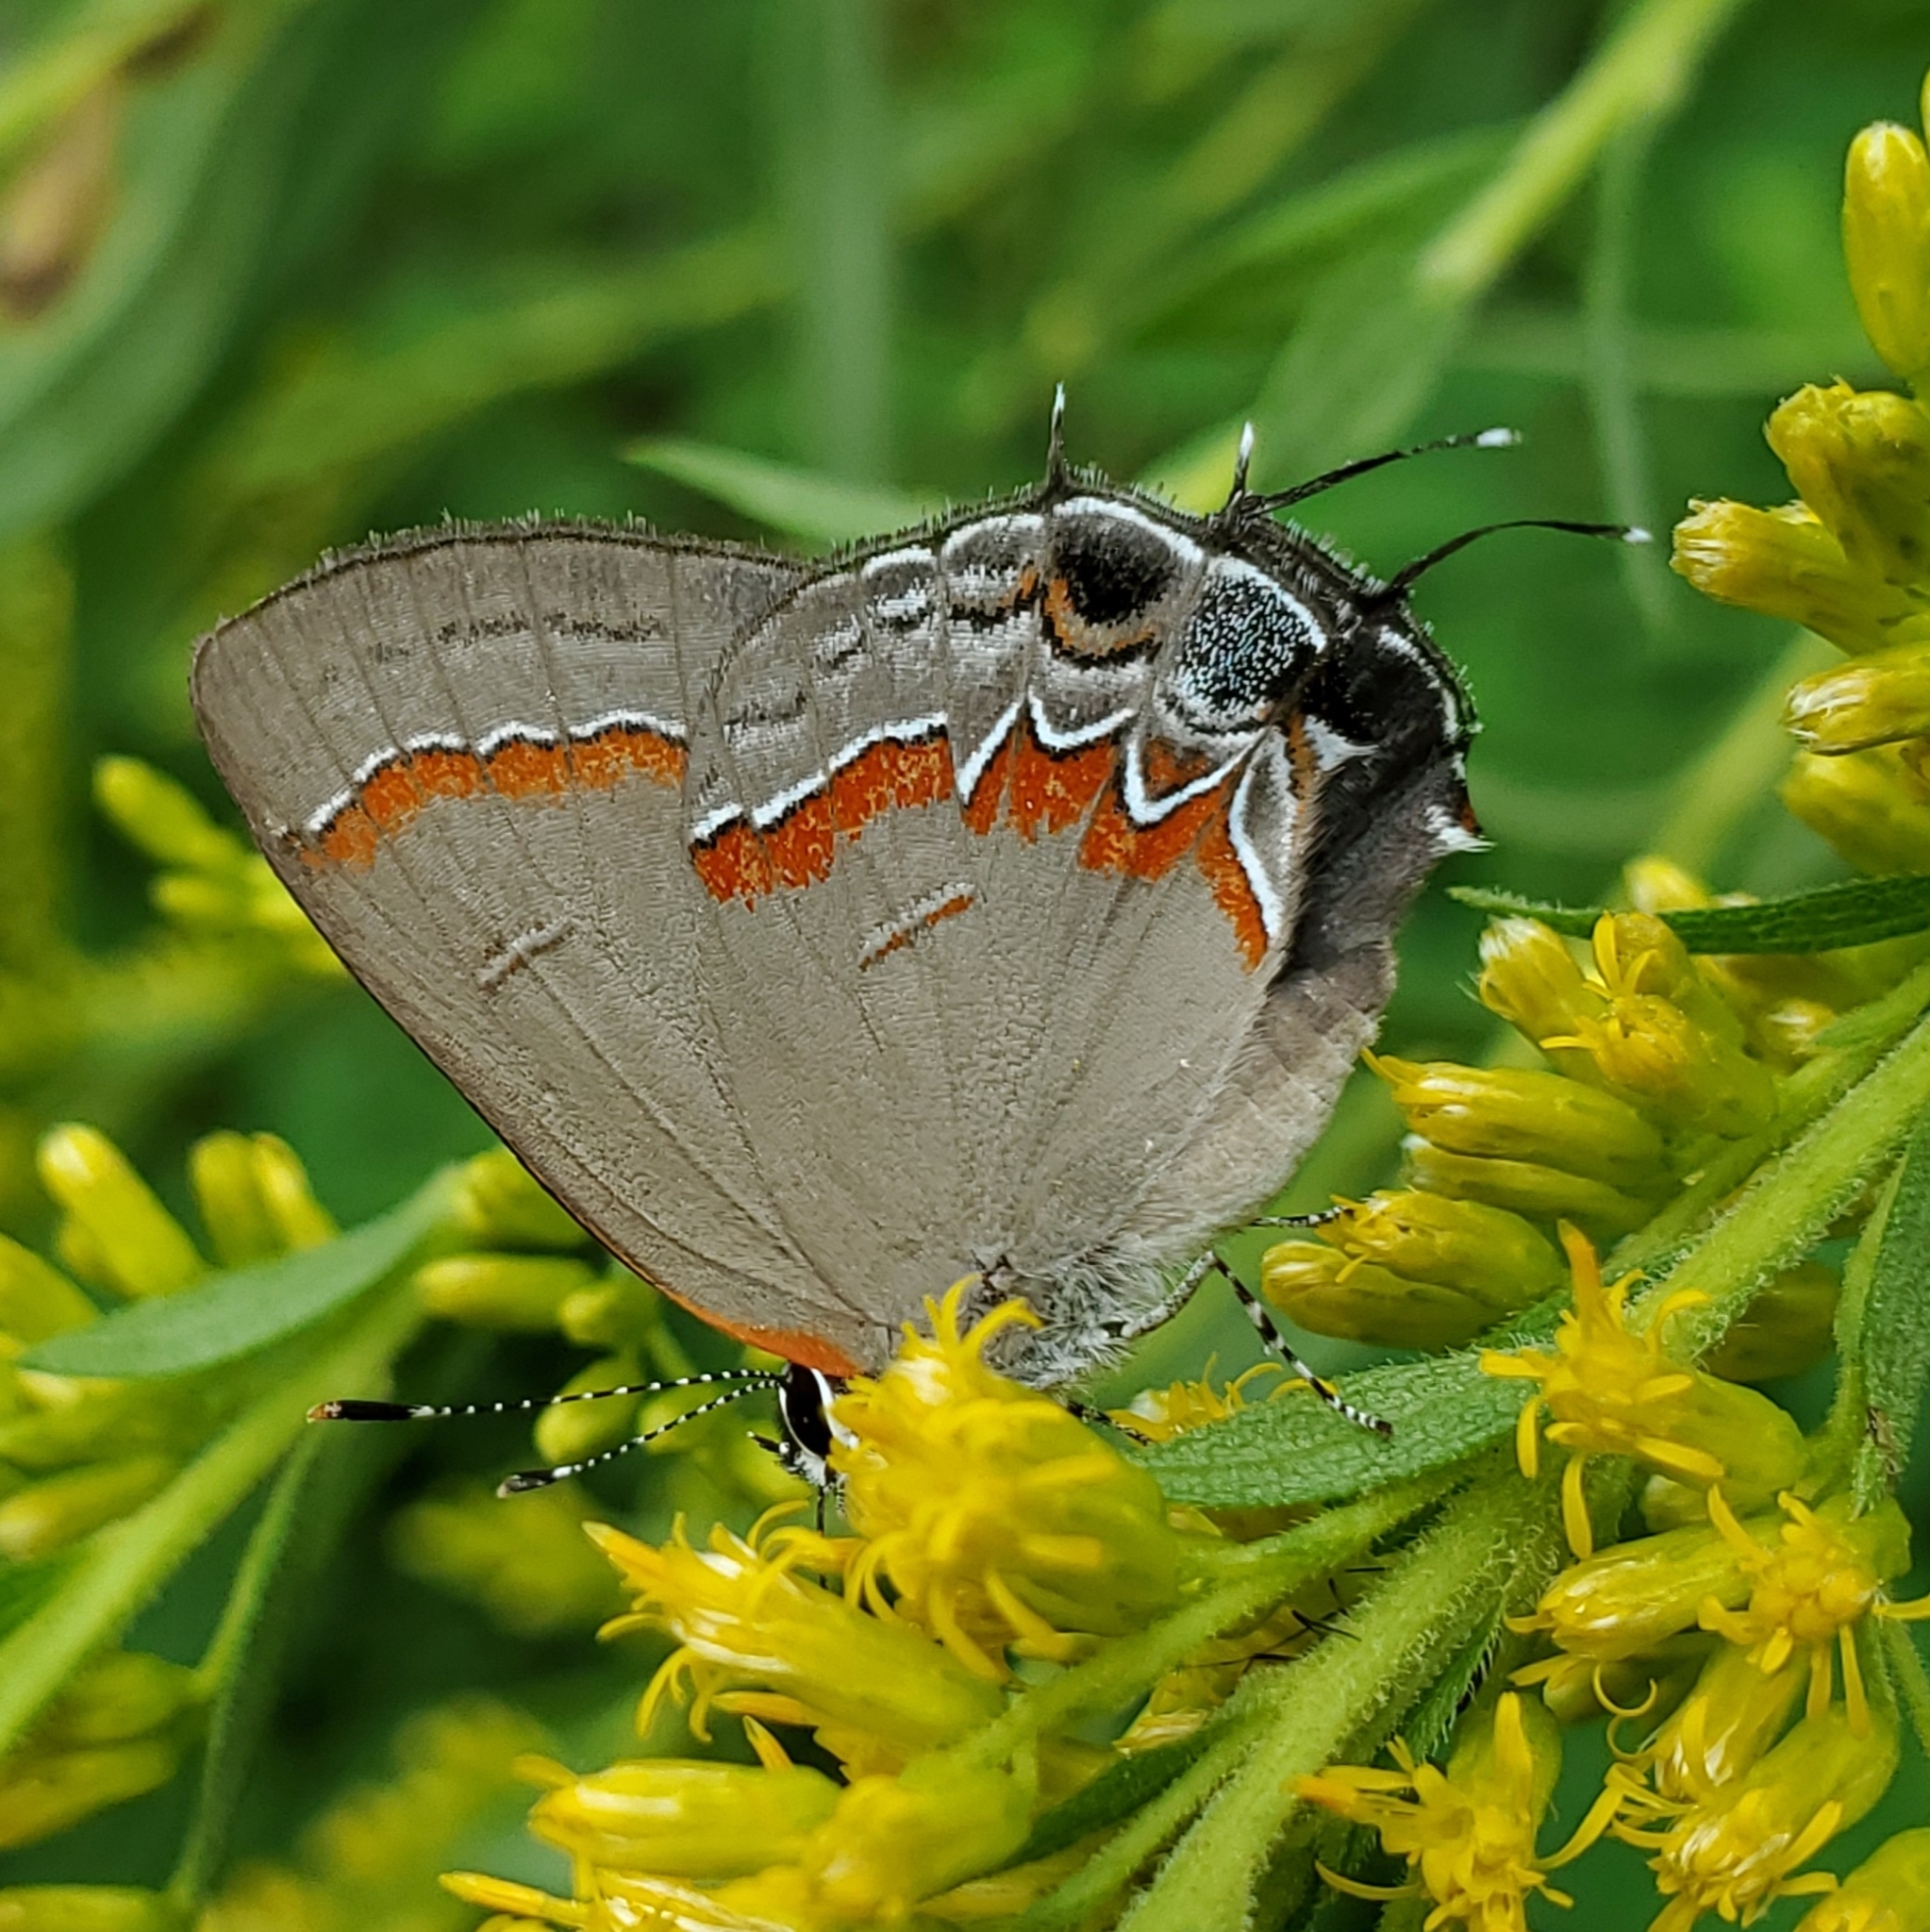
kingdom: Animalia
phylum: Arthropoda
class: Insecta
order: Lepidoptera
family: Lycaenidae
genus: Calycopis
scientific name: Calycopis cecrops
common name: Red-banded hairstreak
